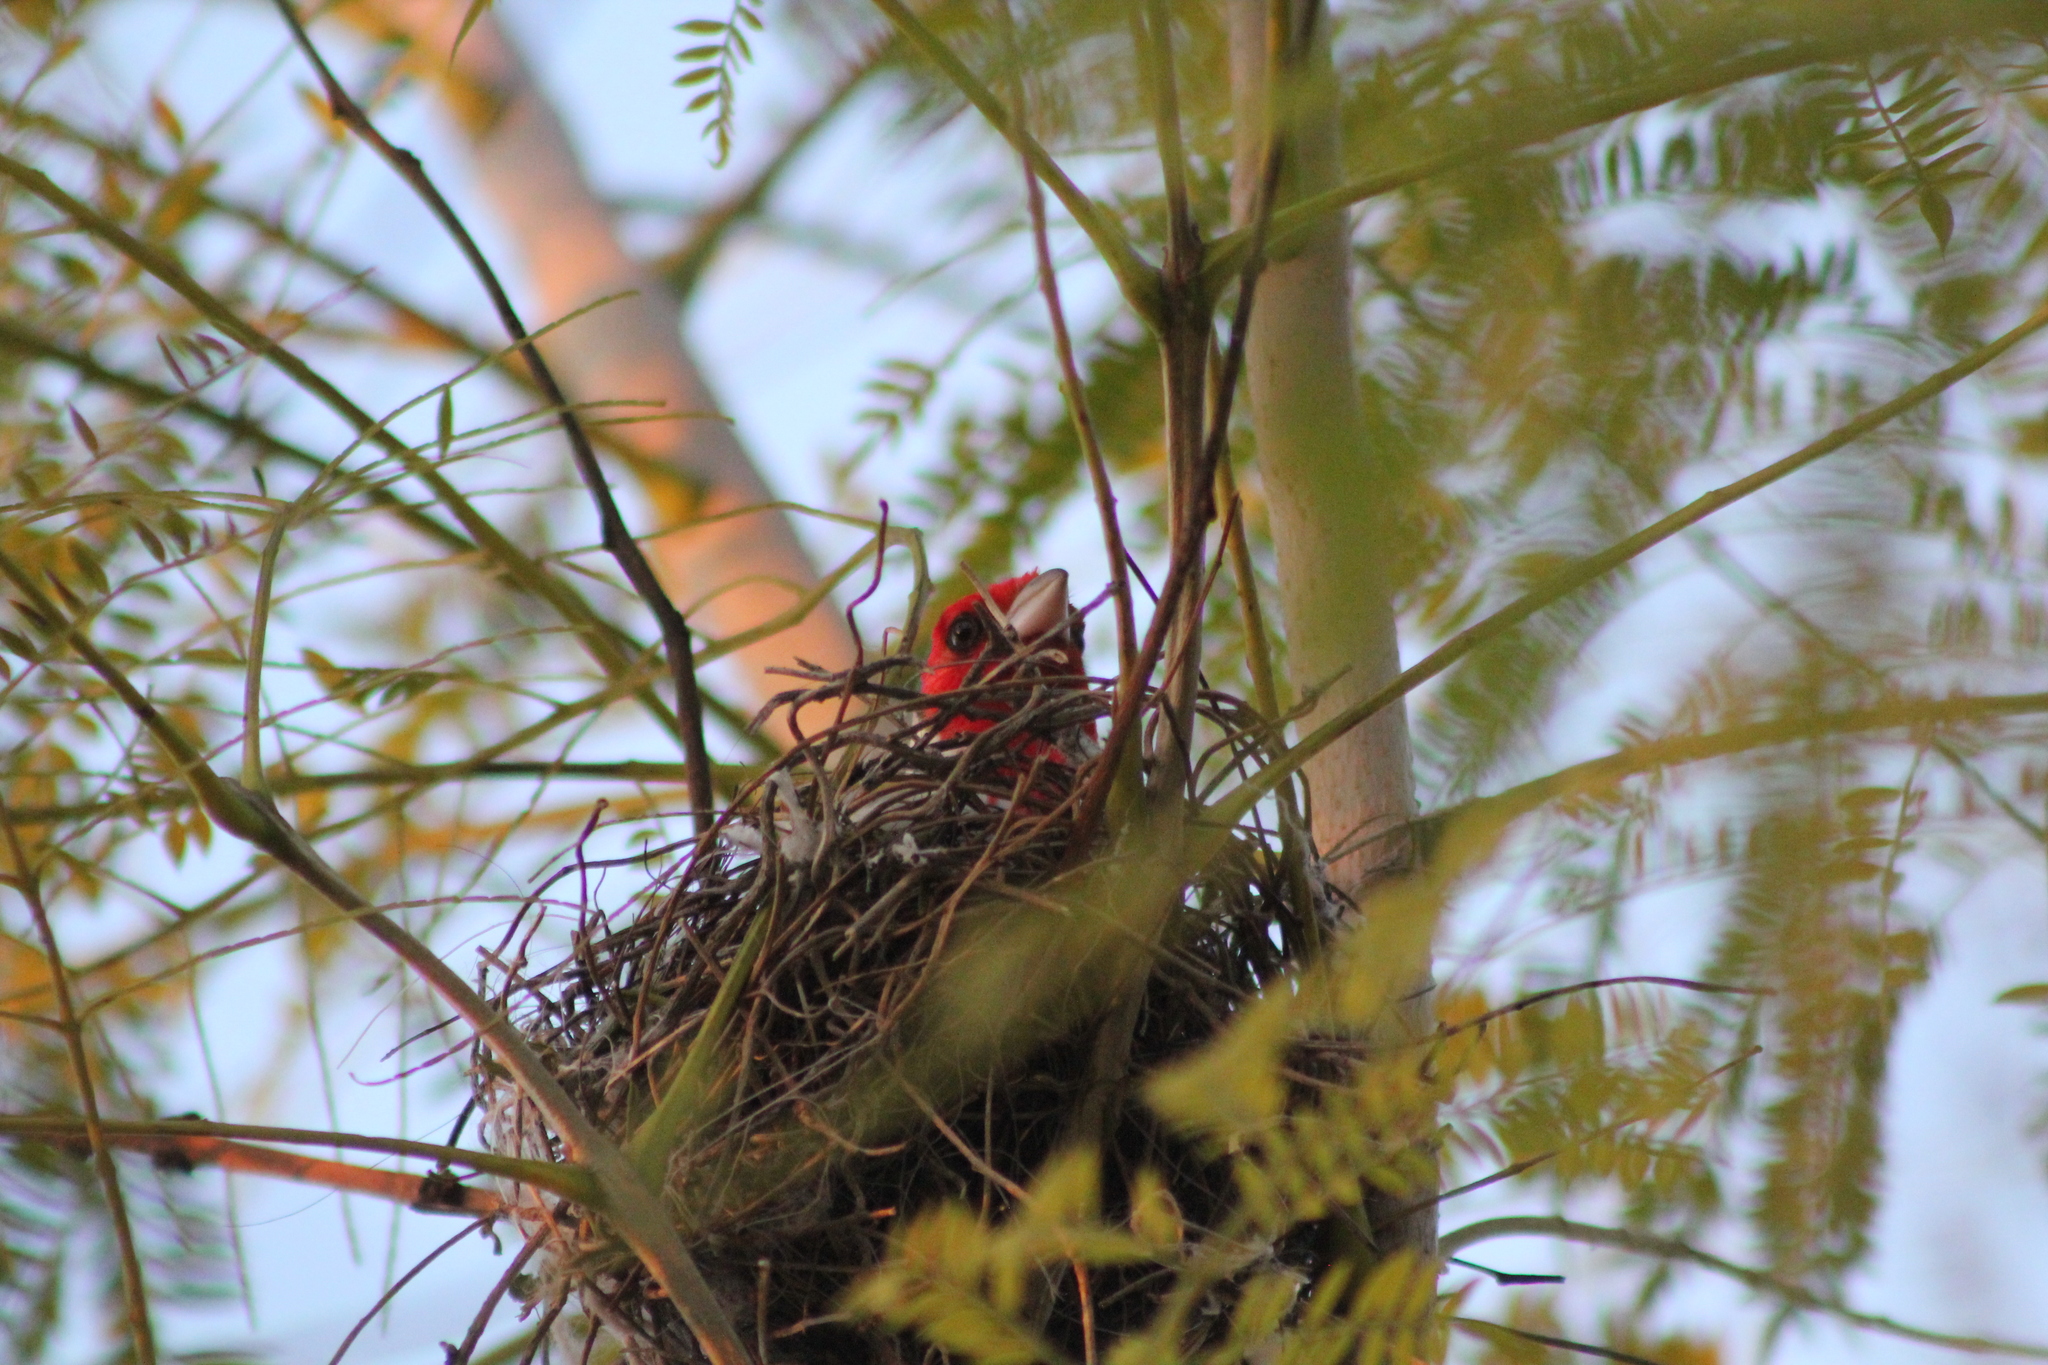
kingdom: Animalia
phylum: Chordata
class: Aves
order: Passeriformes
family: Thraupidae
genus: Paroaria
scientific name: Paroaria coronata
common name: Red-crested cardinal
